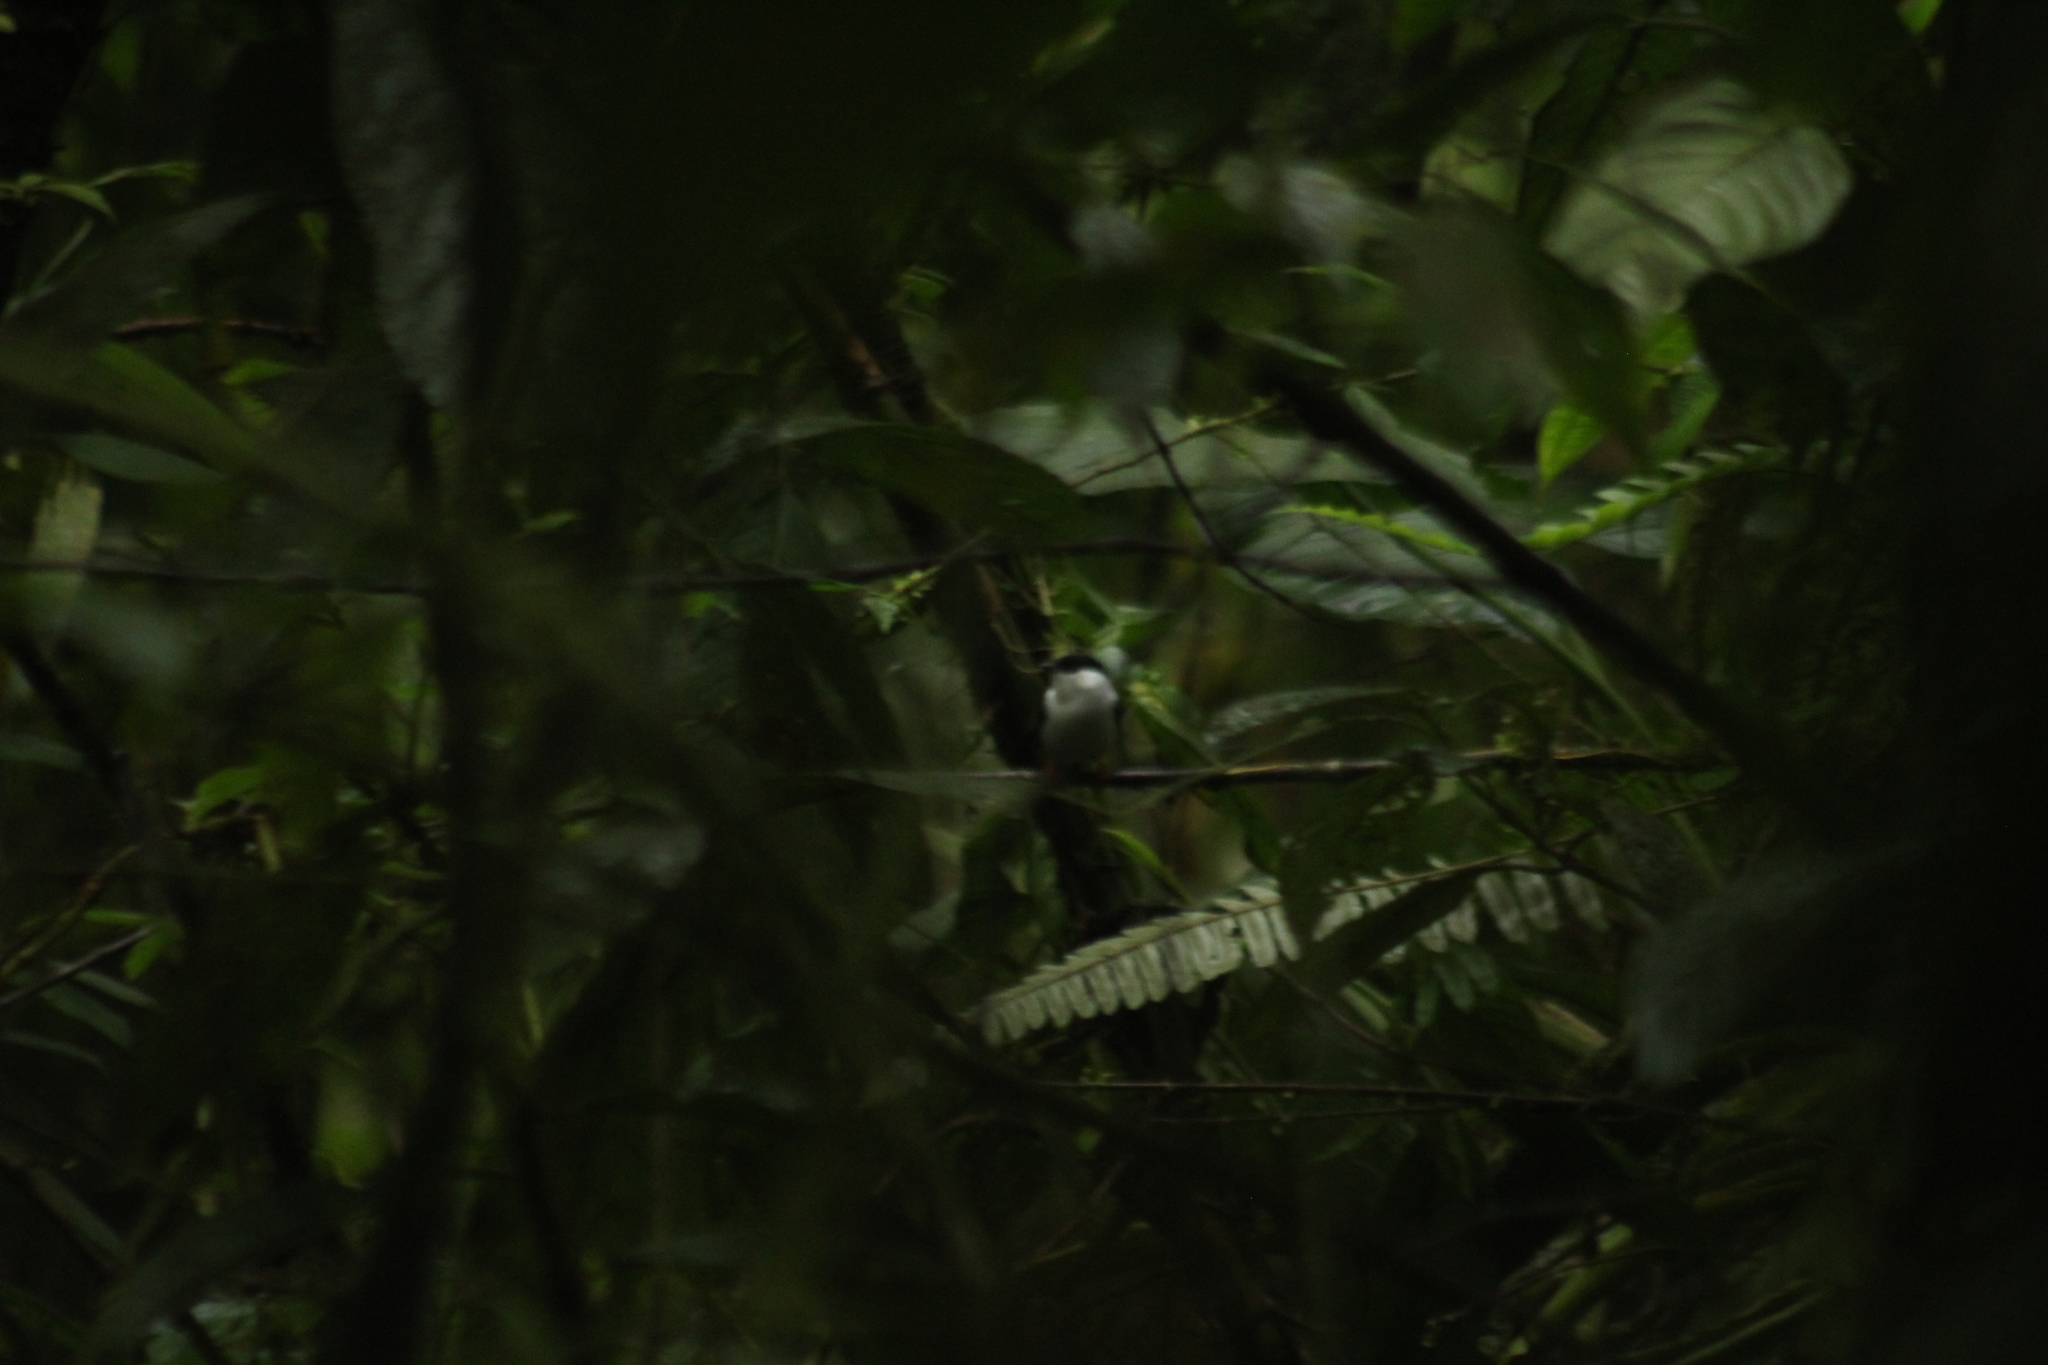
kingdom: Animalia
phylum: Chordata
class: Aves
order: Passeriformes
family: Pipridae
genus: Manacus
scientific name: Manacus manacus
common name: White-bearded manakin
